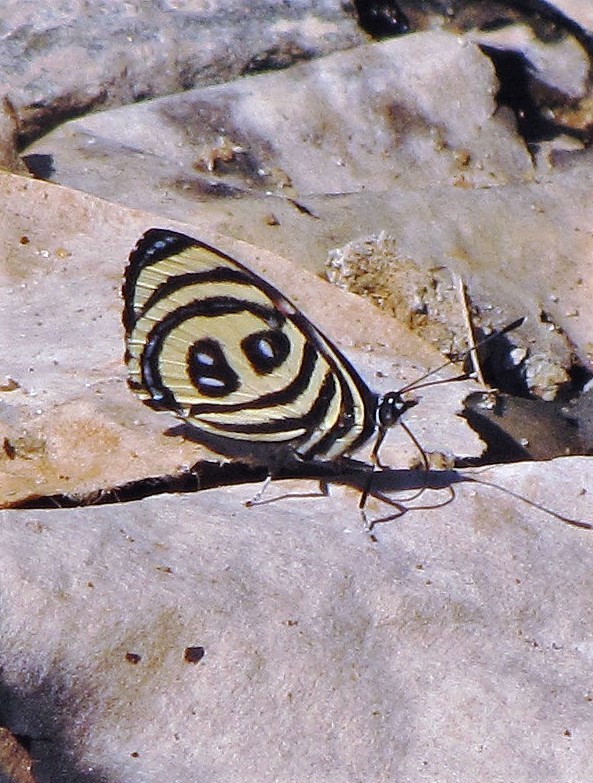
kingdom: Animalia
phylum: Arthropoda
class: Insecta
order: Lepidoptera
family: Nymphalidae
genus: Catagramma
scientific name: Catagramma pyracmon
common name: Google-eyed eighty-eight
